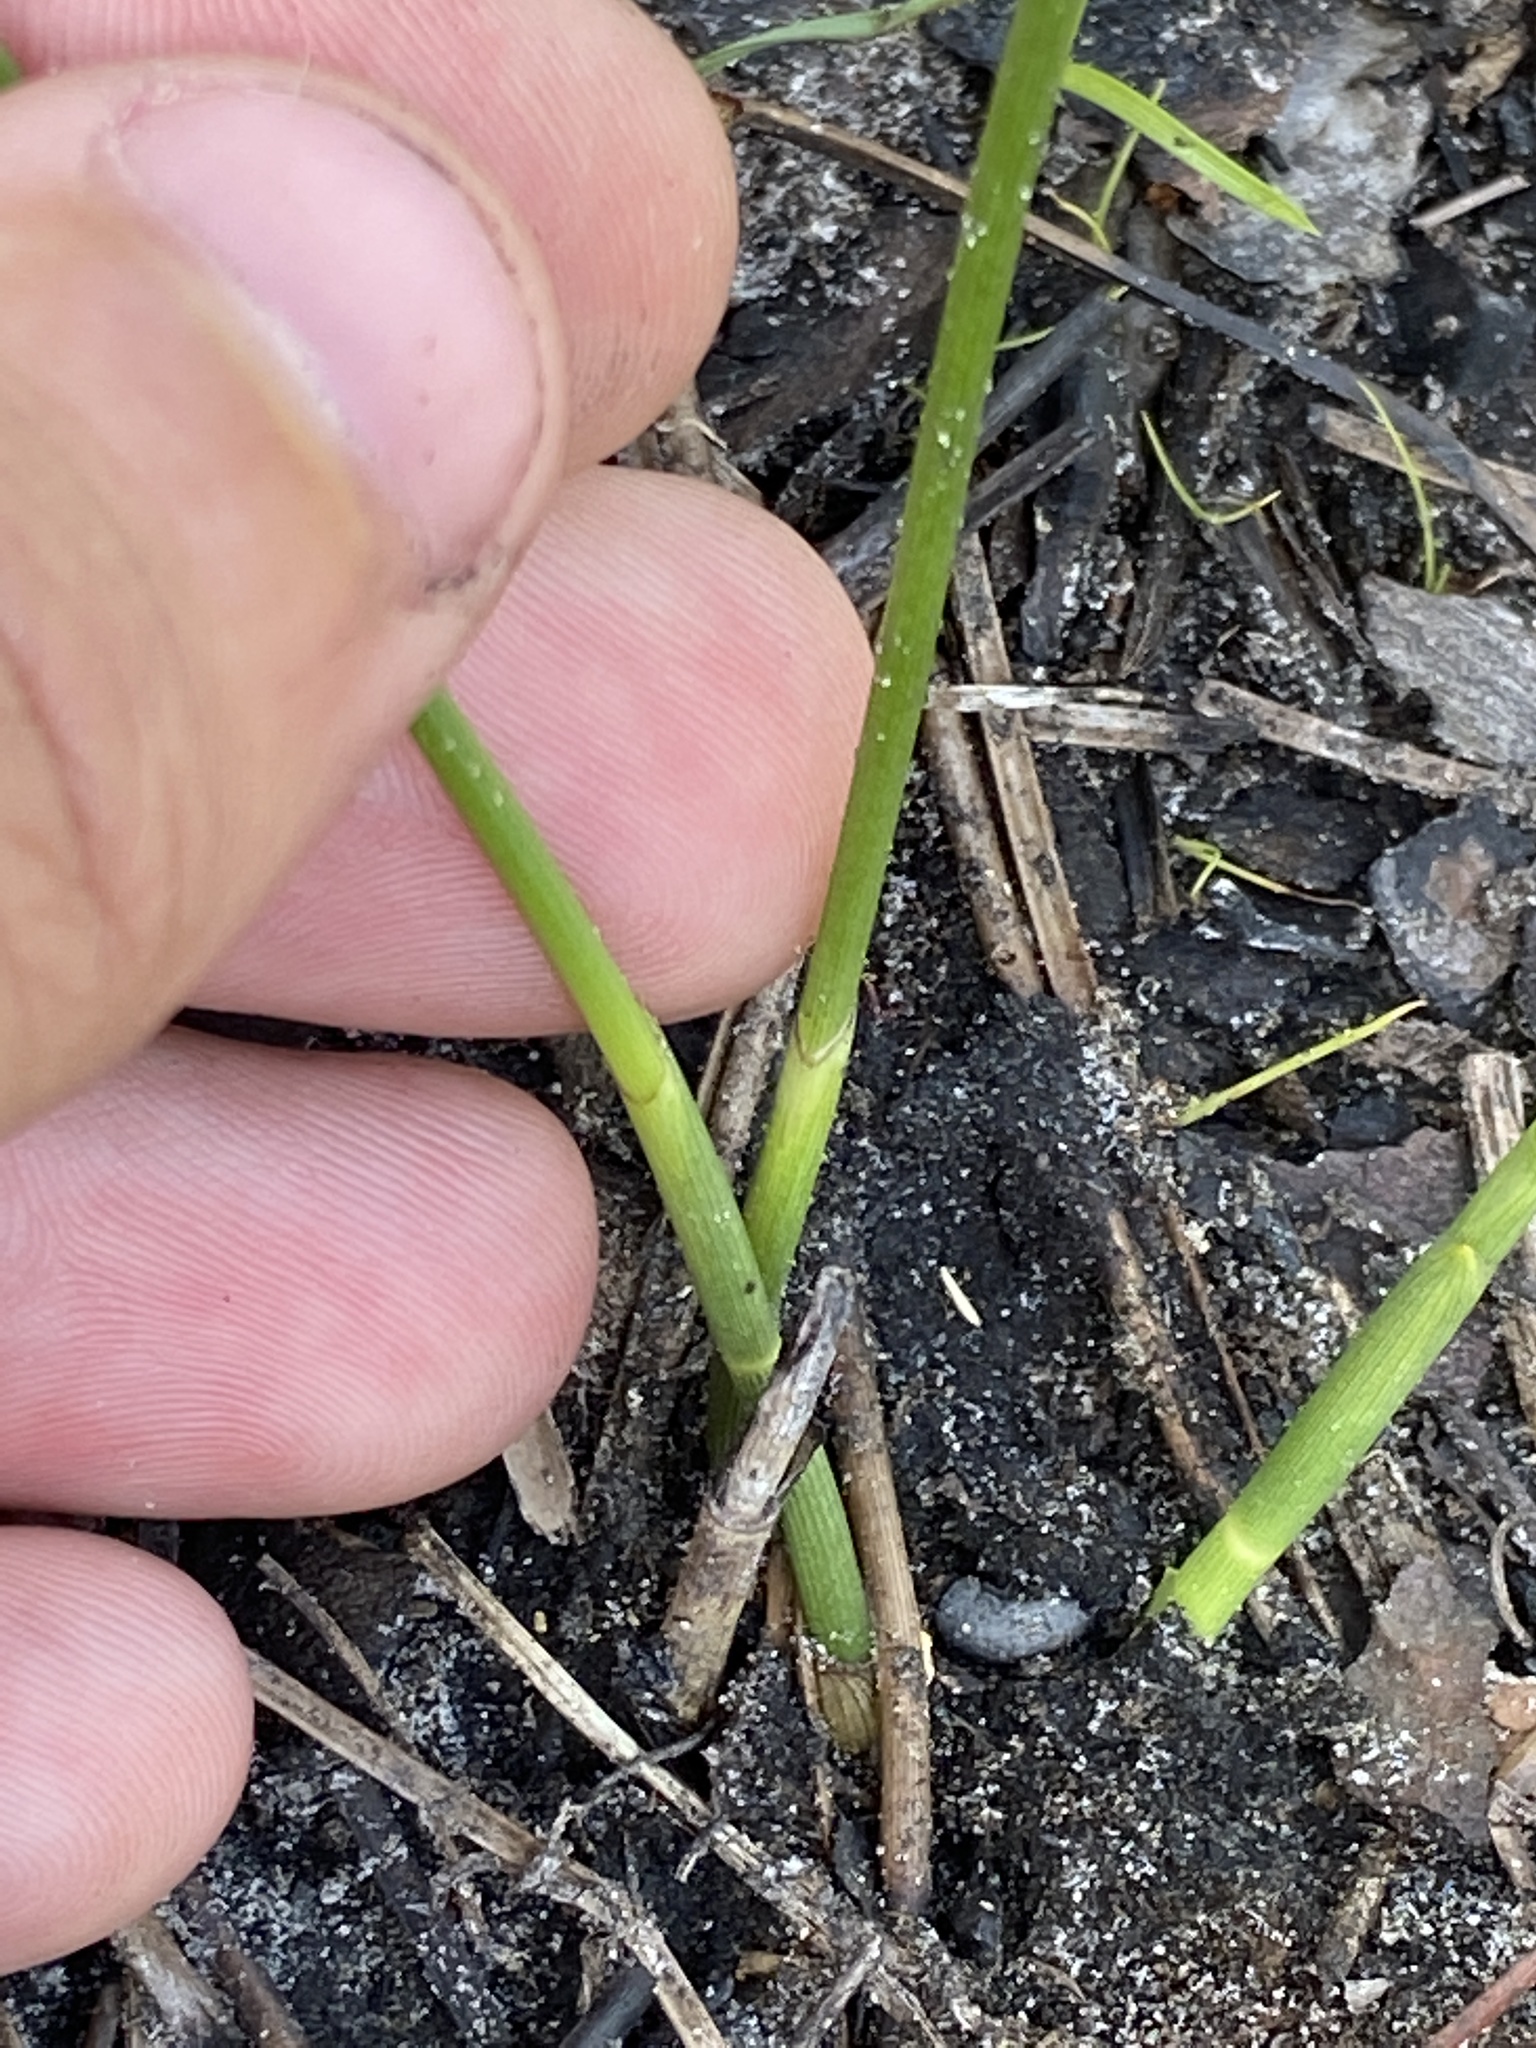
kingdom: Plantae
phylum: Tracheophyta
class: Liliopsida
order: Poales
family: Cyperaceae
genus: Fuirena
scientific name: Fuirena scirpoidea
